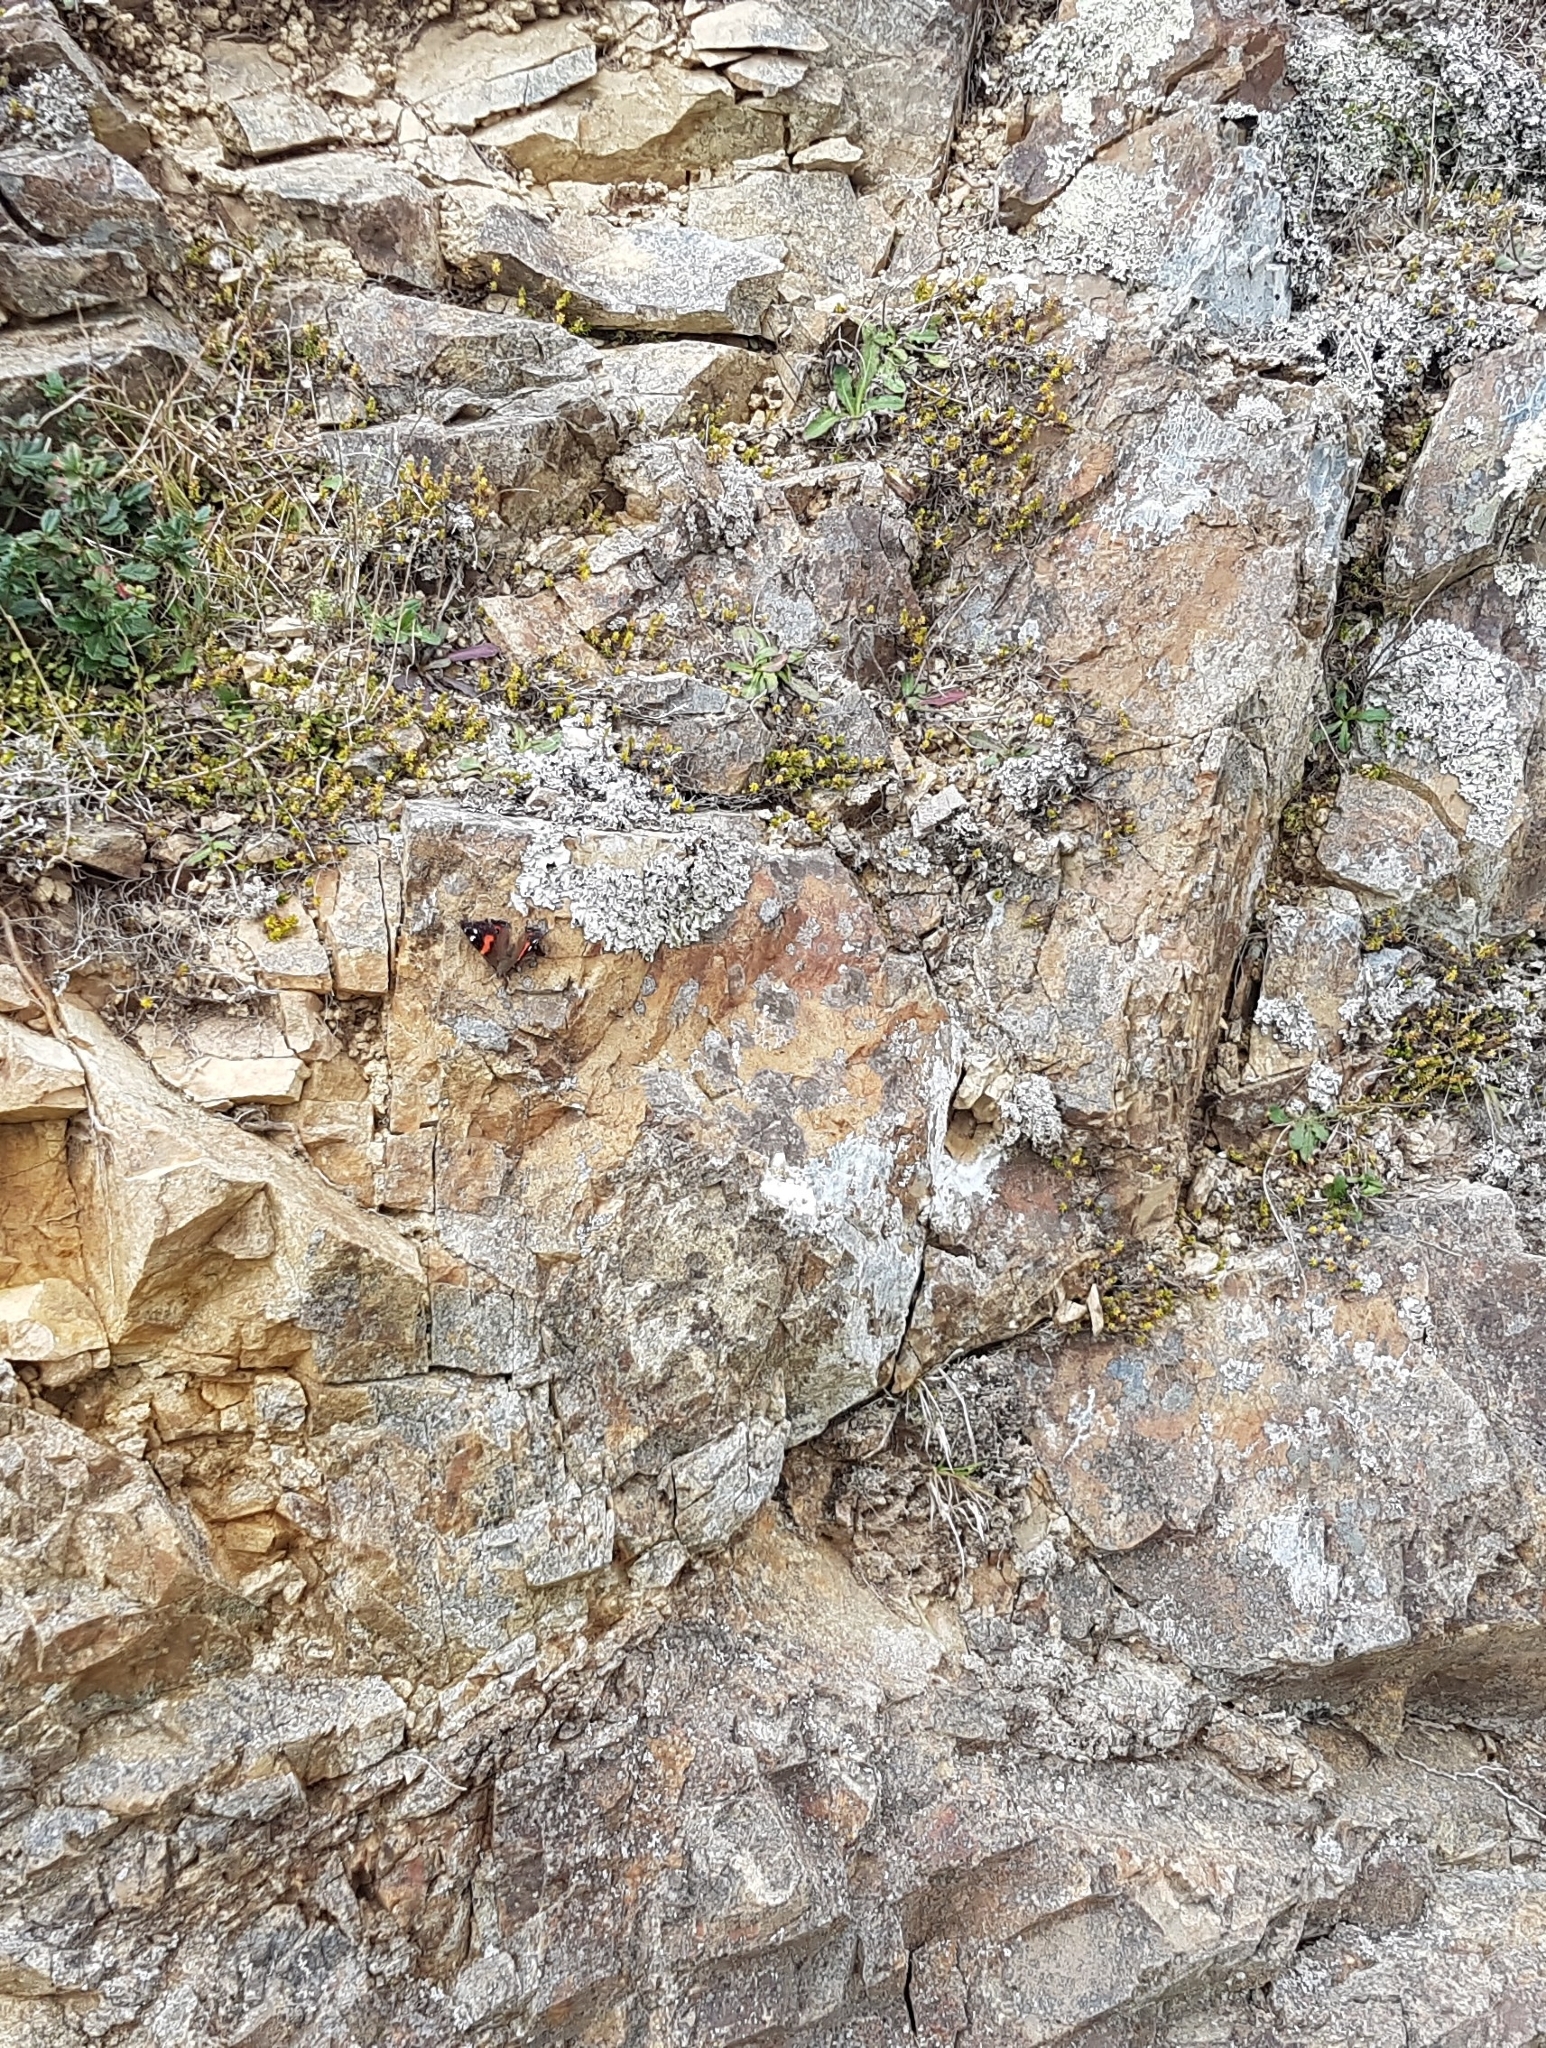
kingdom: Animalia
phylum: Arthropoda
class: Insecta
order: Lepidoptera
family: Nymphalidae
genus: Vanessa
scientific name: Vanessa gonerilla
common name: New zealand red admiral
